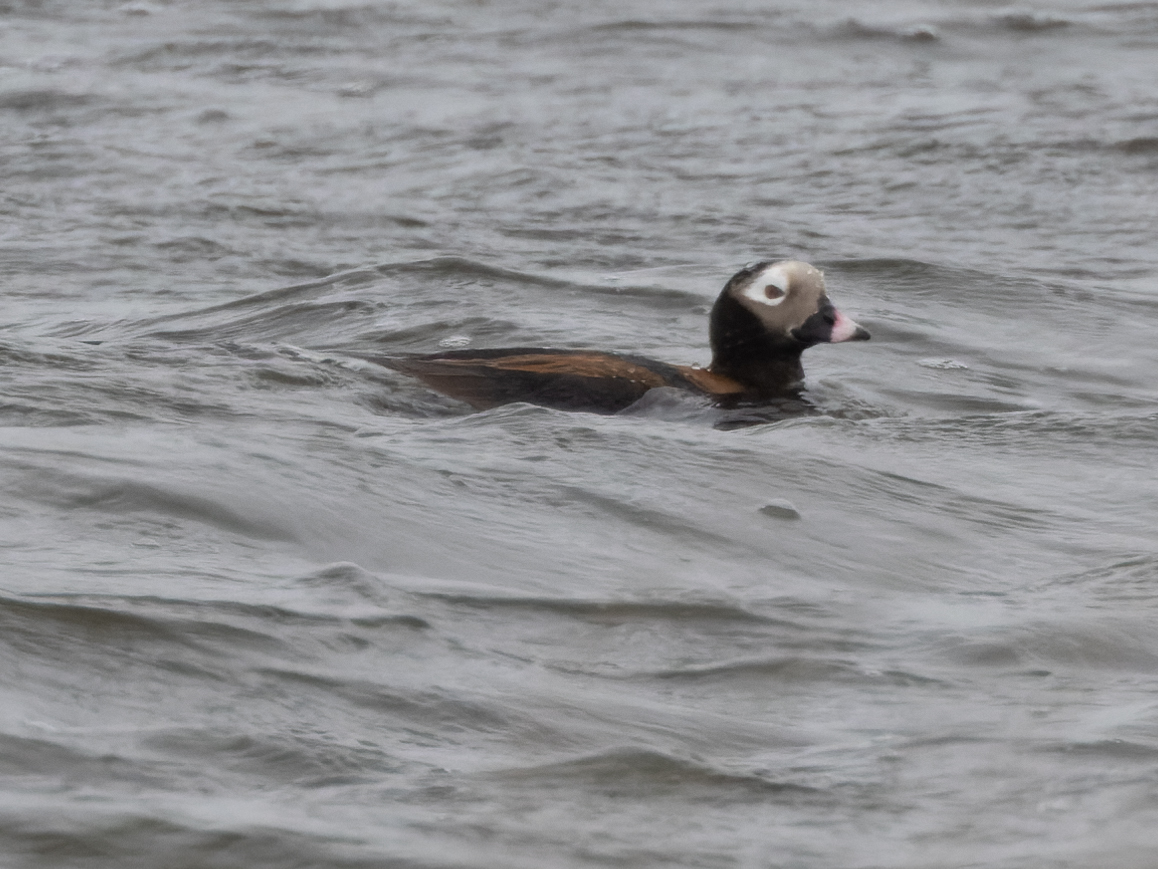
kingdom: Animalia
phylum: Chordata
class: Aves
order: Anseriformes
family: Anatidae
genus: Clangula
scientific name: Clangula hyemalis
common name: Long-tailed duck
